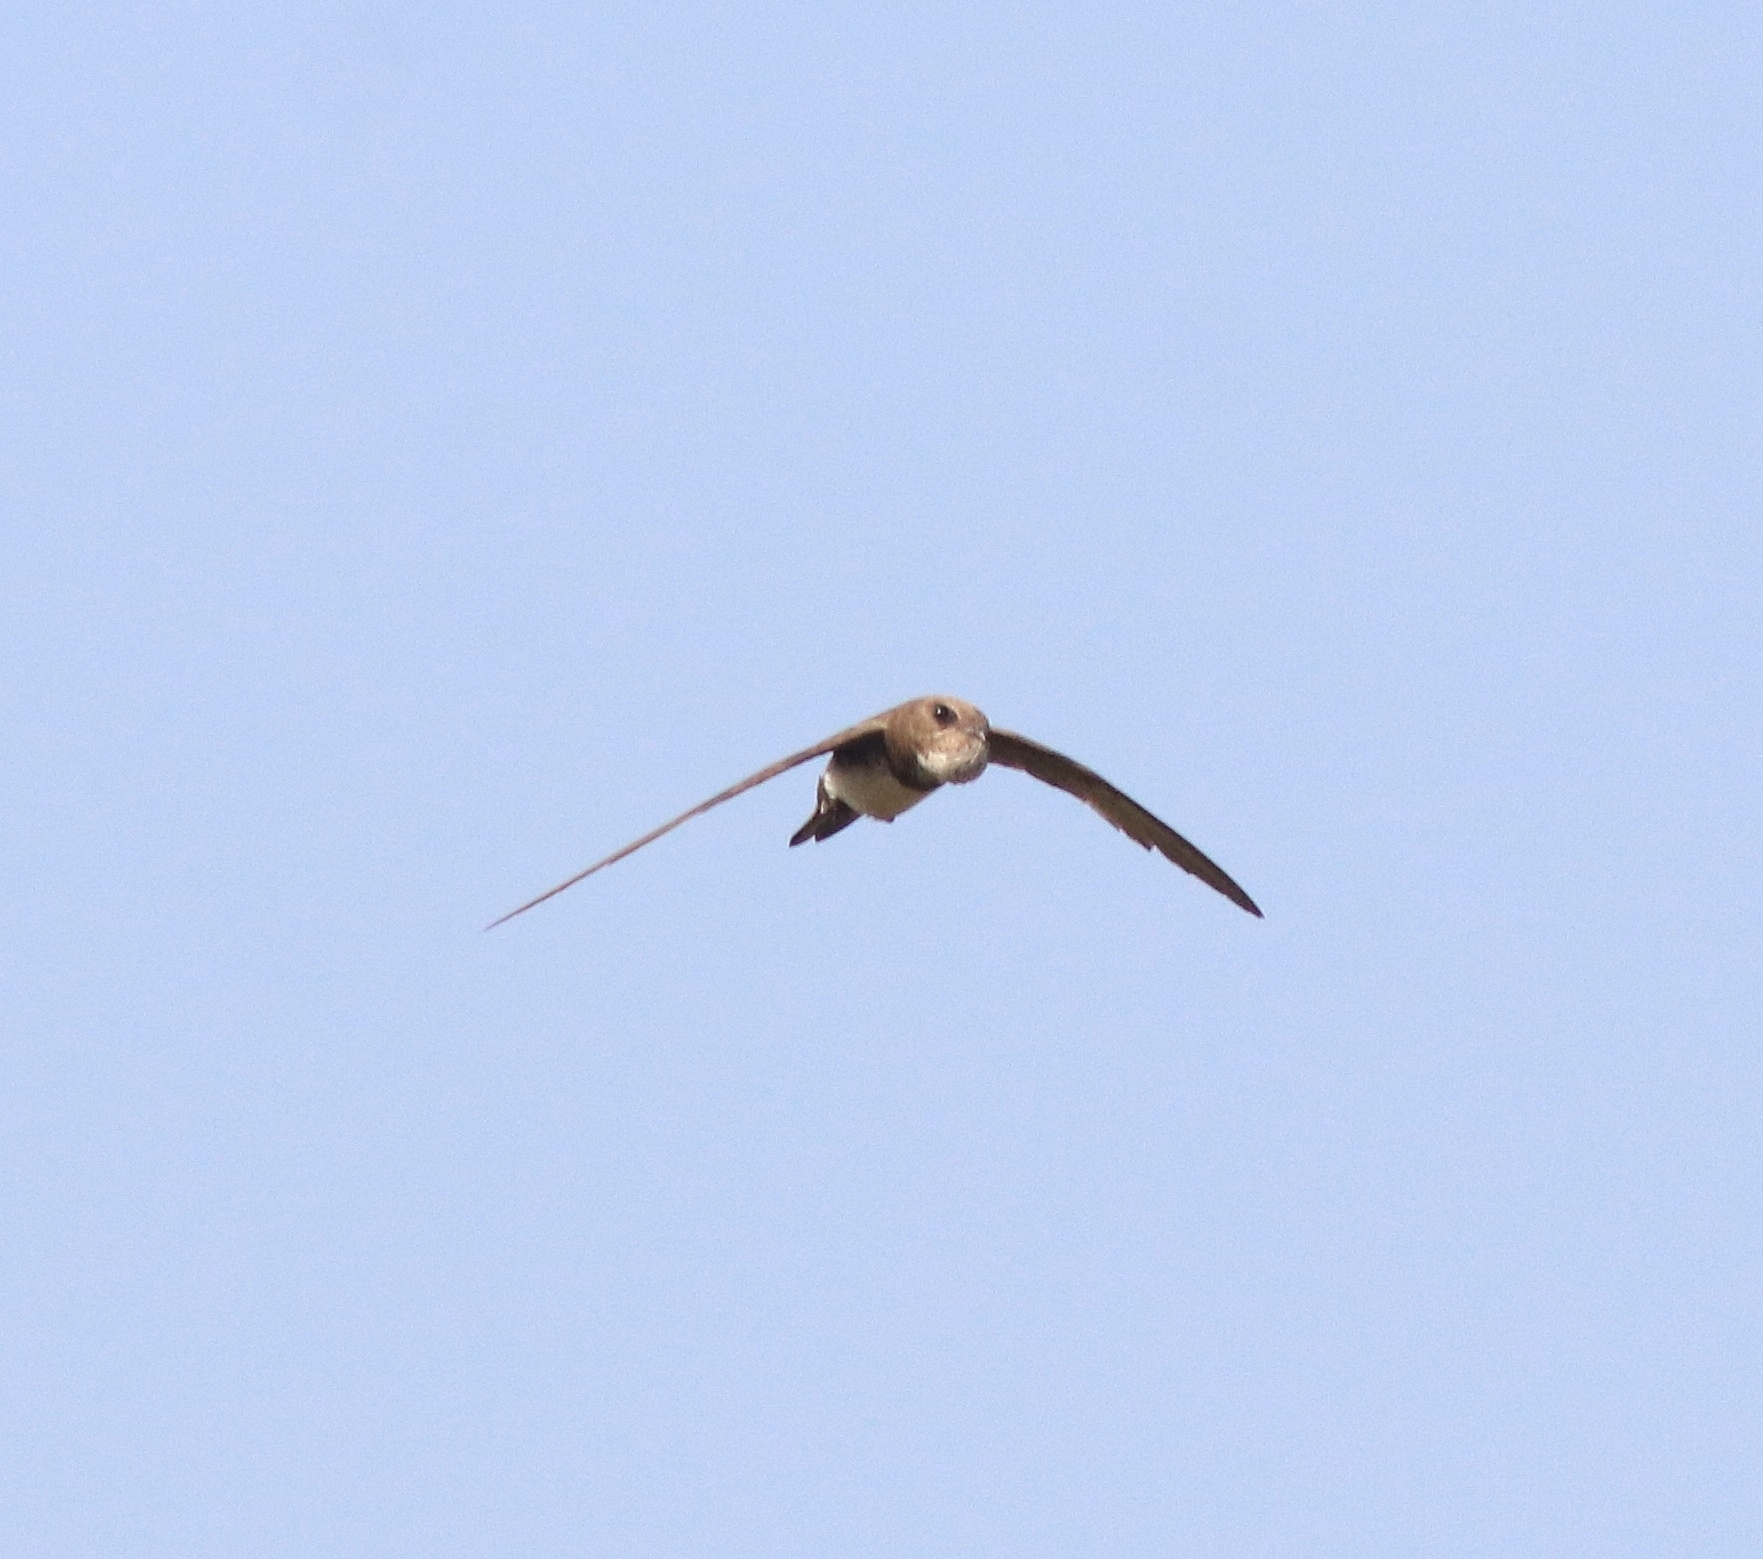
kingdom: Animalia
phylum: Chordata
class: Aves
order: Apodiformes
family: Apodidae
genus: Tachymarptis
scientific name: Tachymarptis melba
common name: Alpine swift
